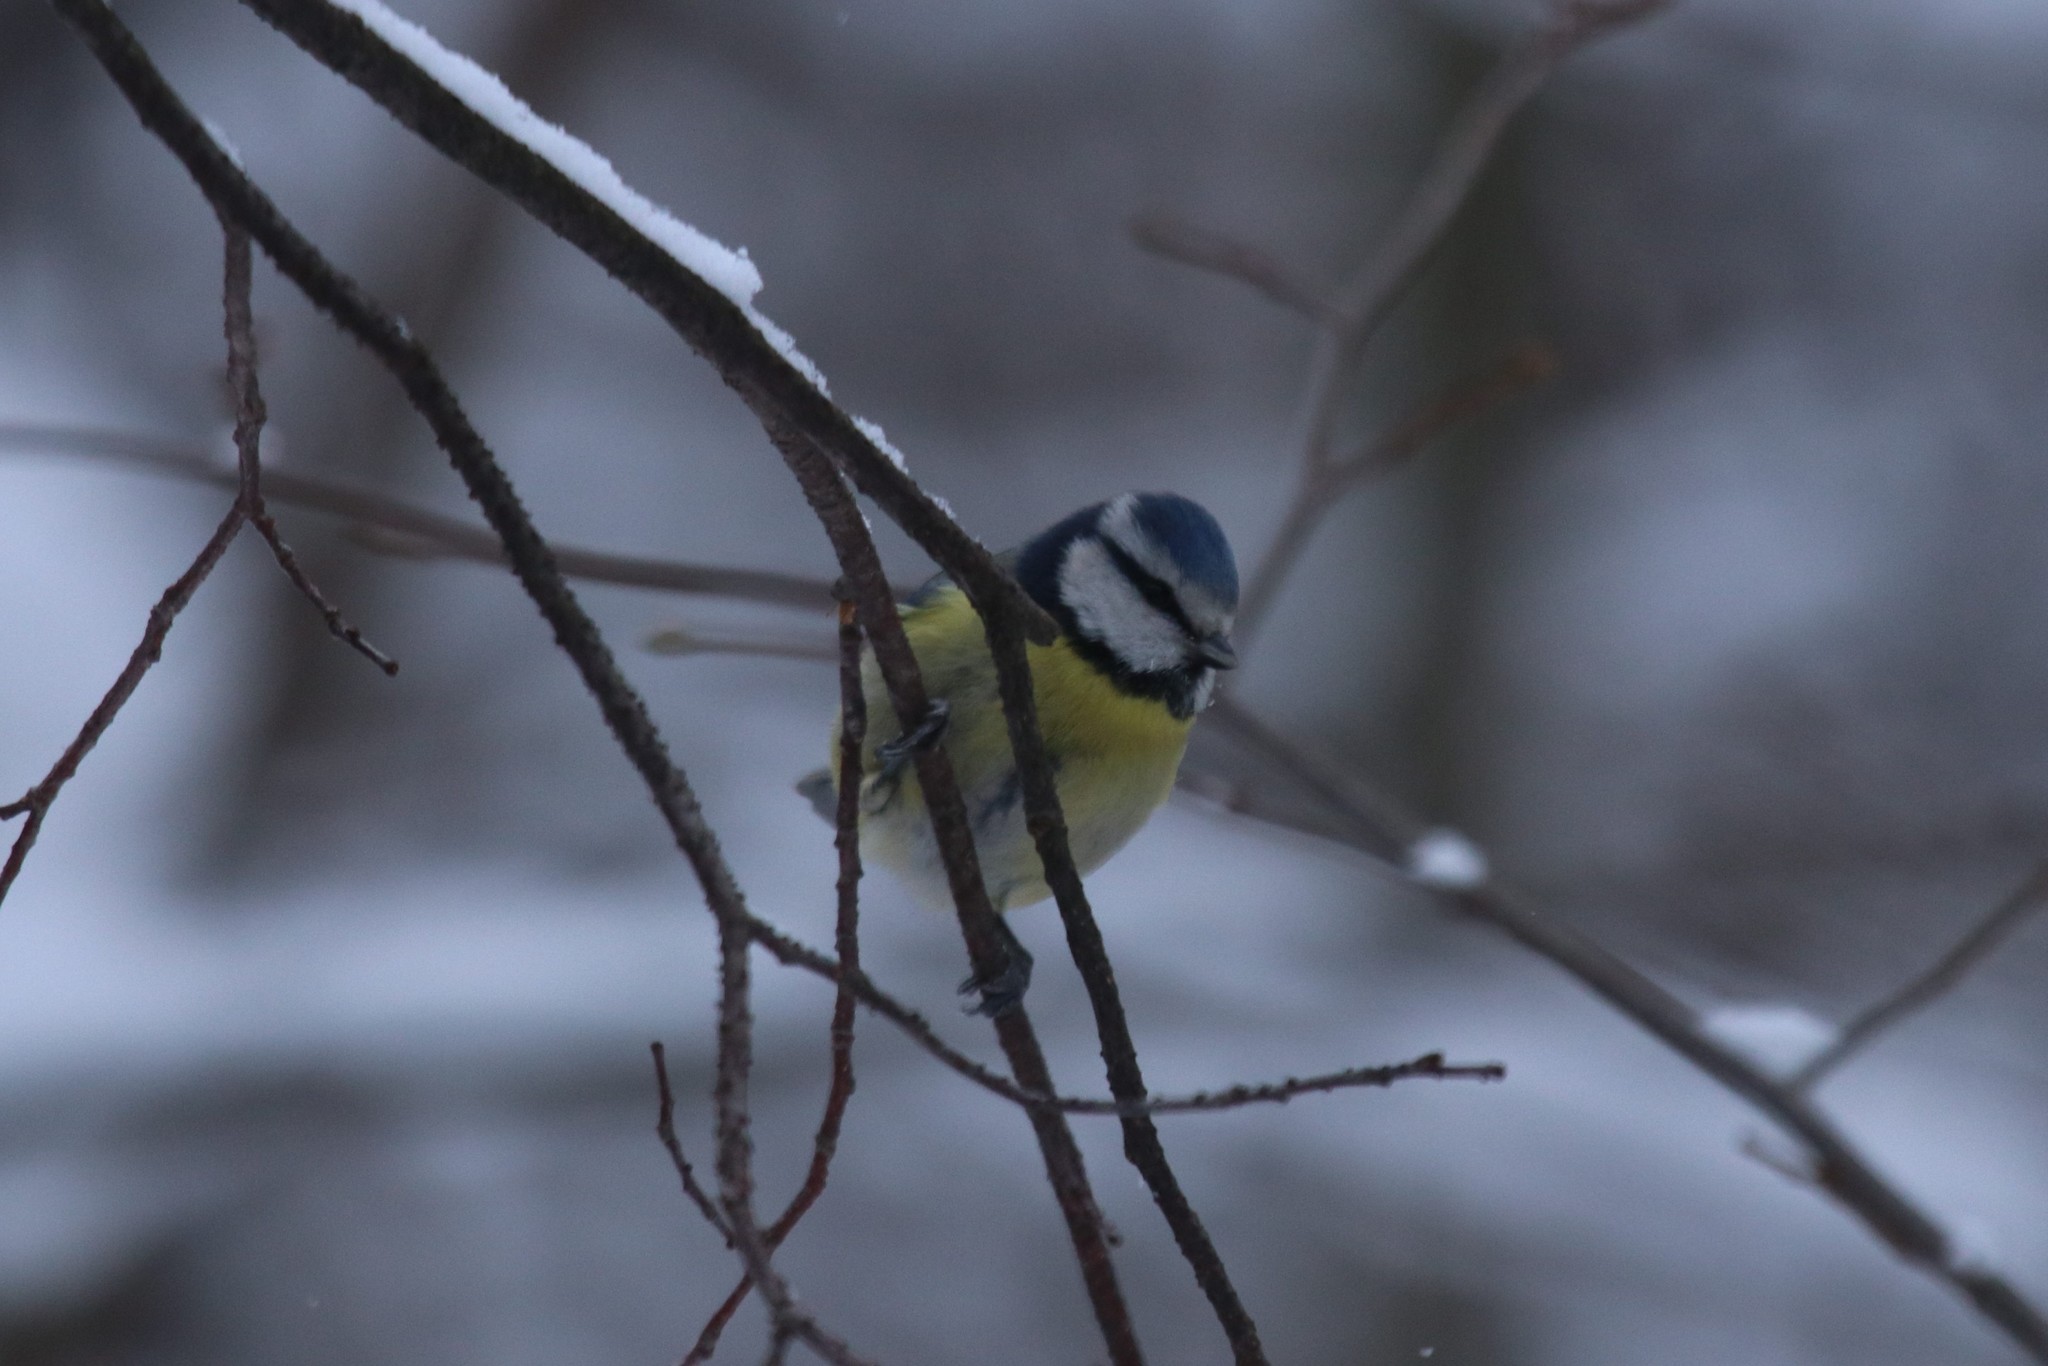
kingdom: Animalia
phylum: Chordata
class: Aves
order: Passeriformes
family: Paridae
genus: Cyanistes
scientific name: Cyanistes caeruleus
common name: Eurasian blue tit
